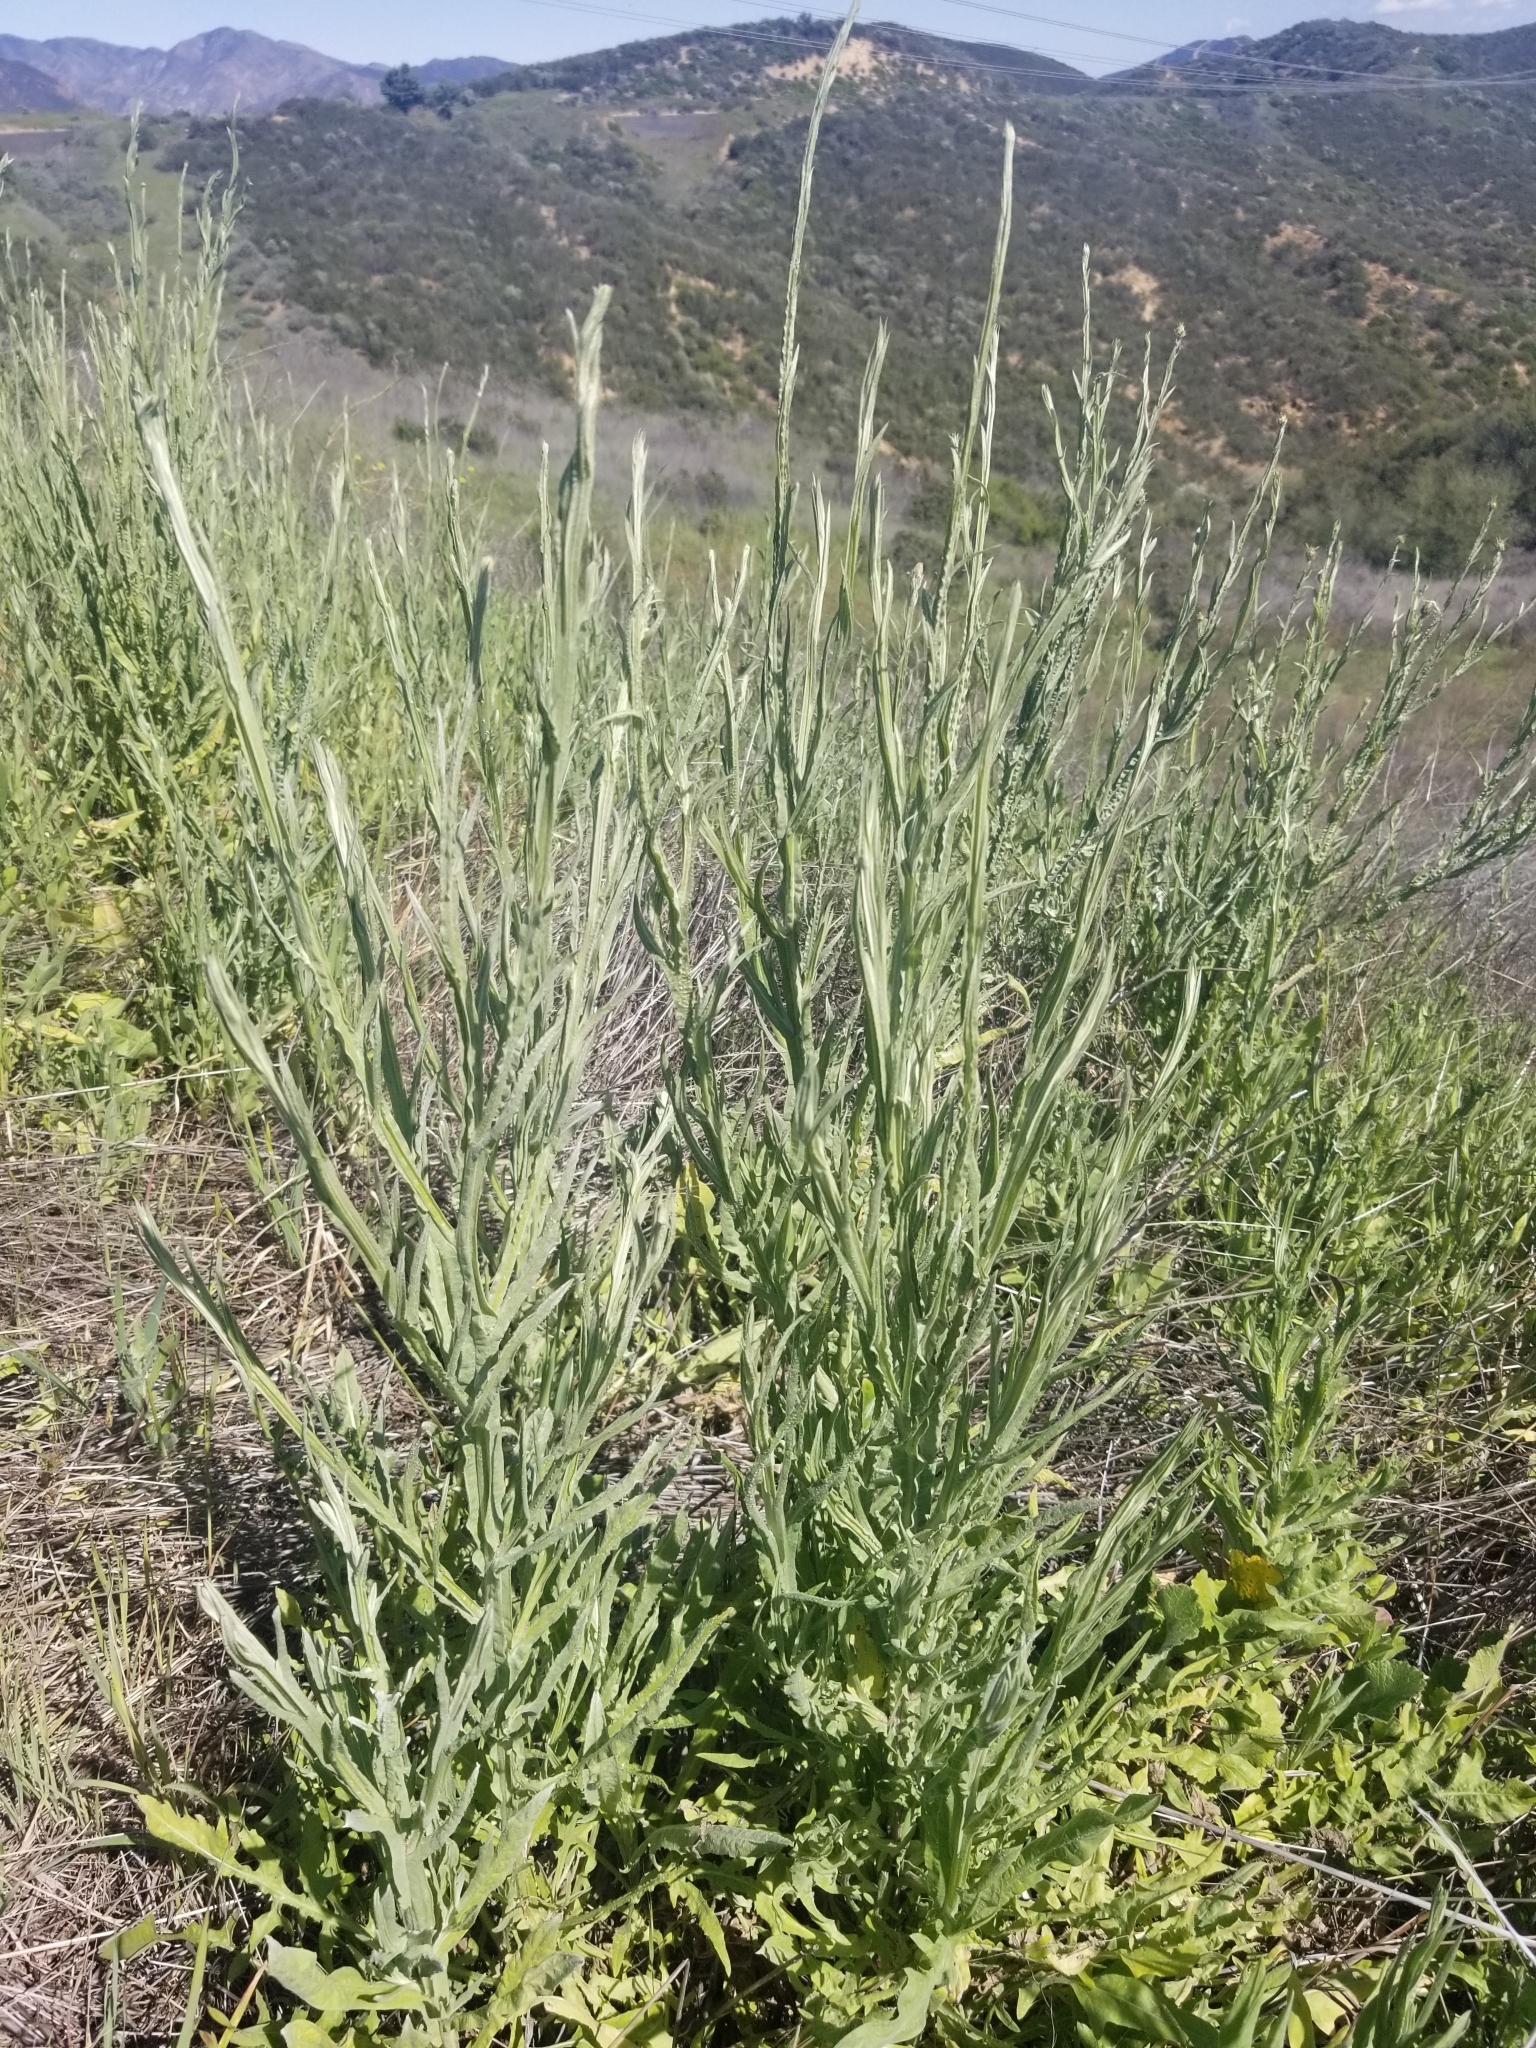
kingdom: Plantae
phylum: Tracheophyta
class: Magnoliopsida
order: Asterales
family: Asteraceae
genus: Centaurea
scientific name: Centaurea solstitialis
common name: Yellow star-thistle
